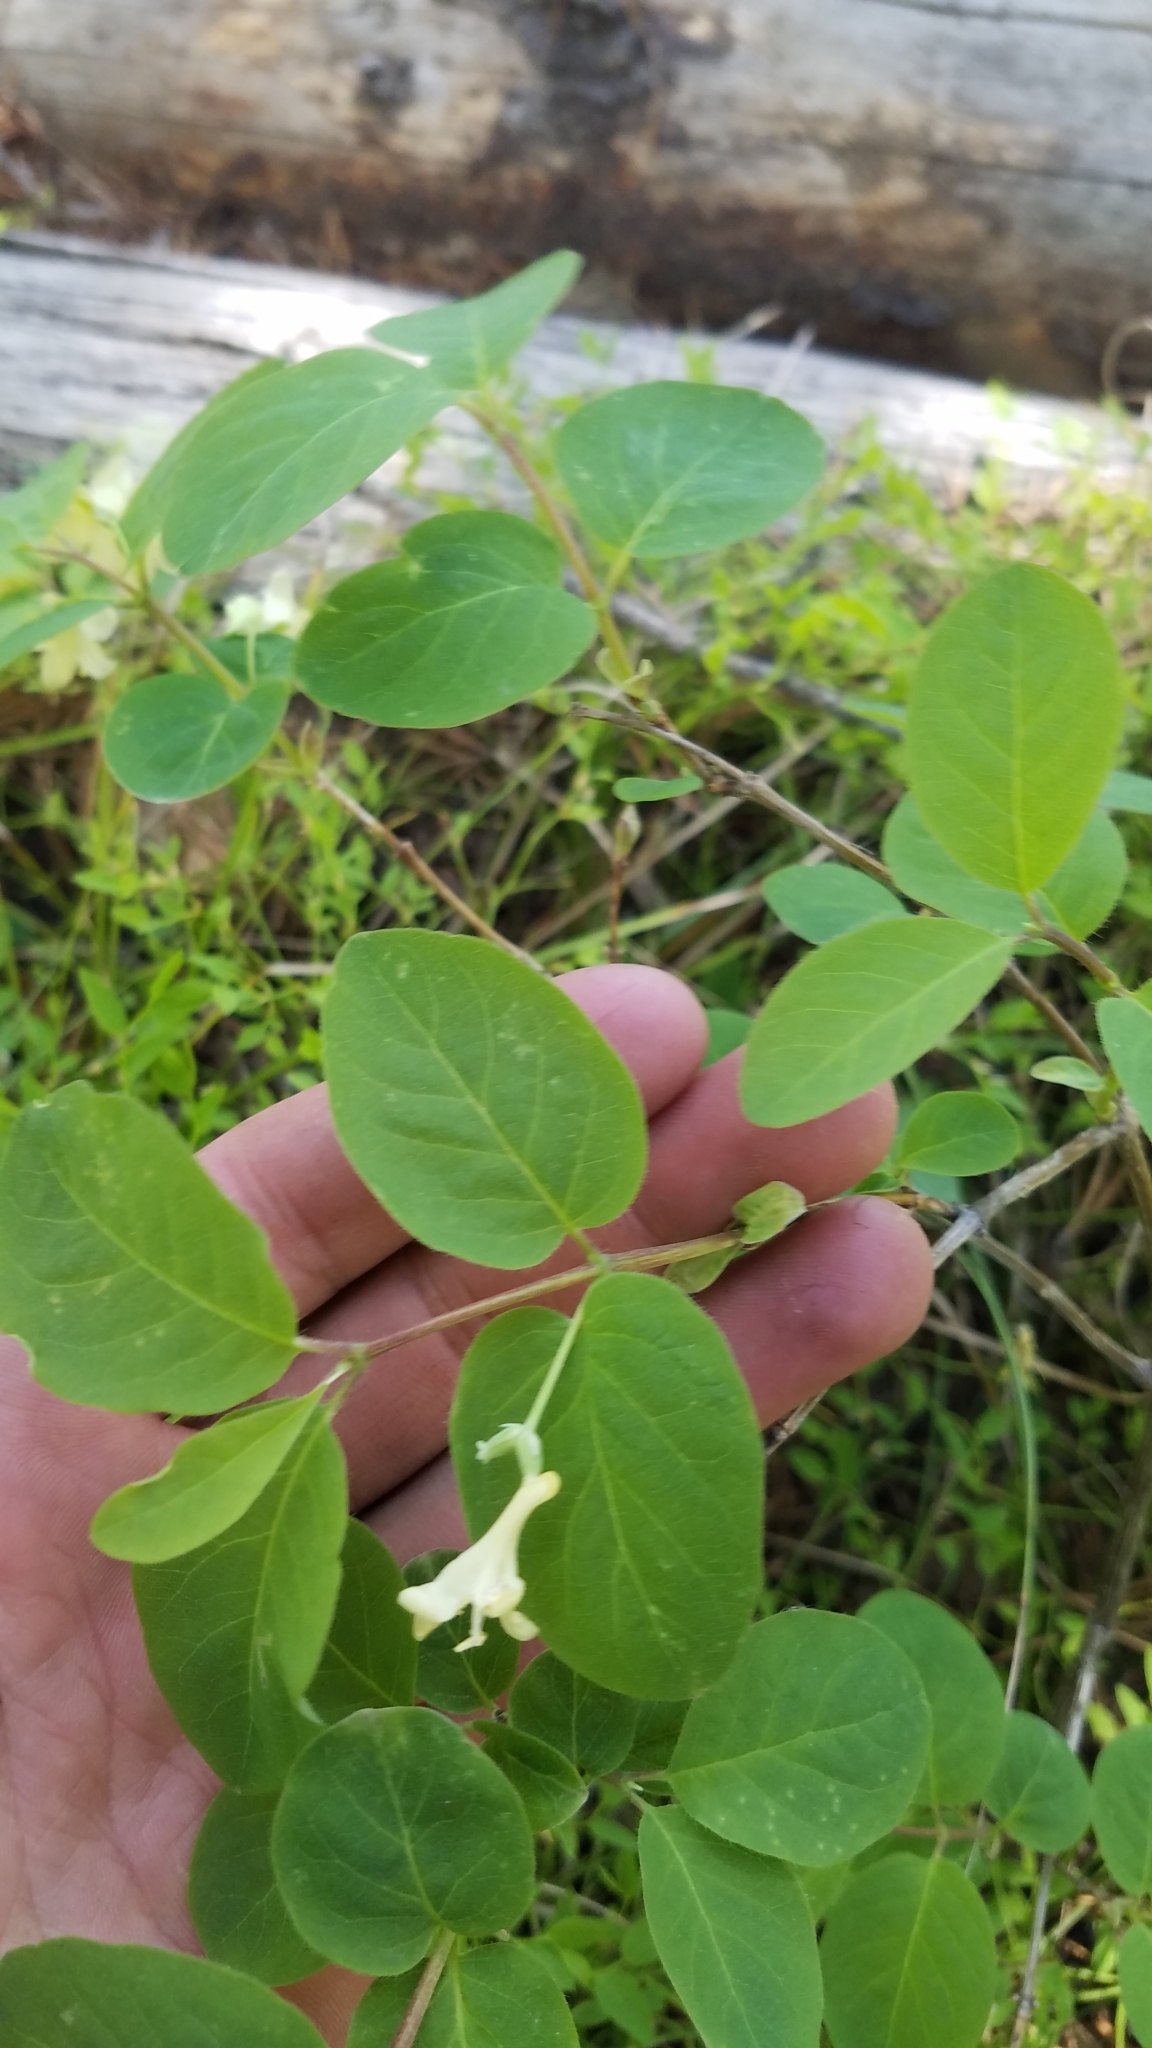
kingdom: Plantae
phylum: Tracheophyta
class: Magnoliopsida
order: Dipsacales
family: Caprifoliaceae
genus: Lonicera
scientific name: Lonicera utahensis
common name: Utah honeysuckle
